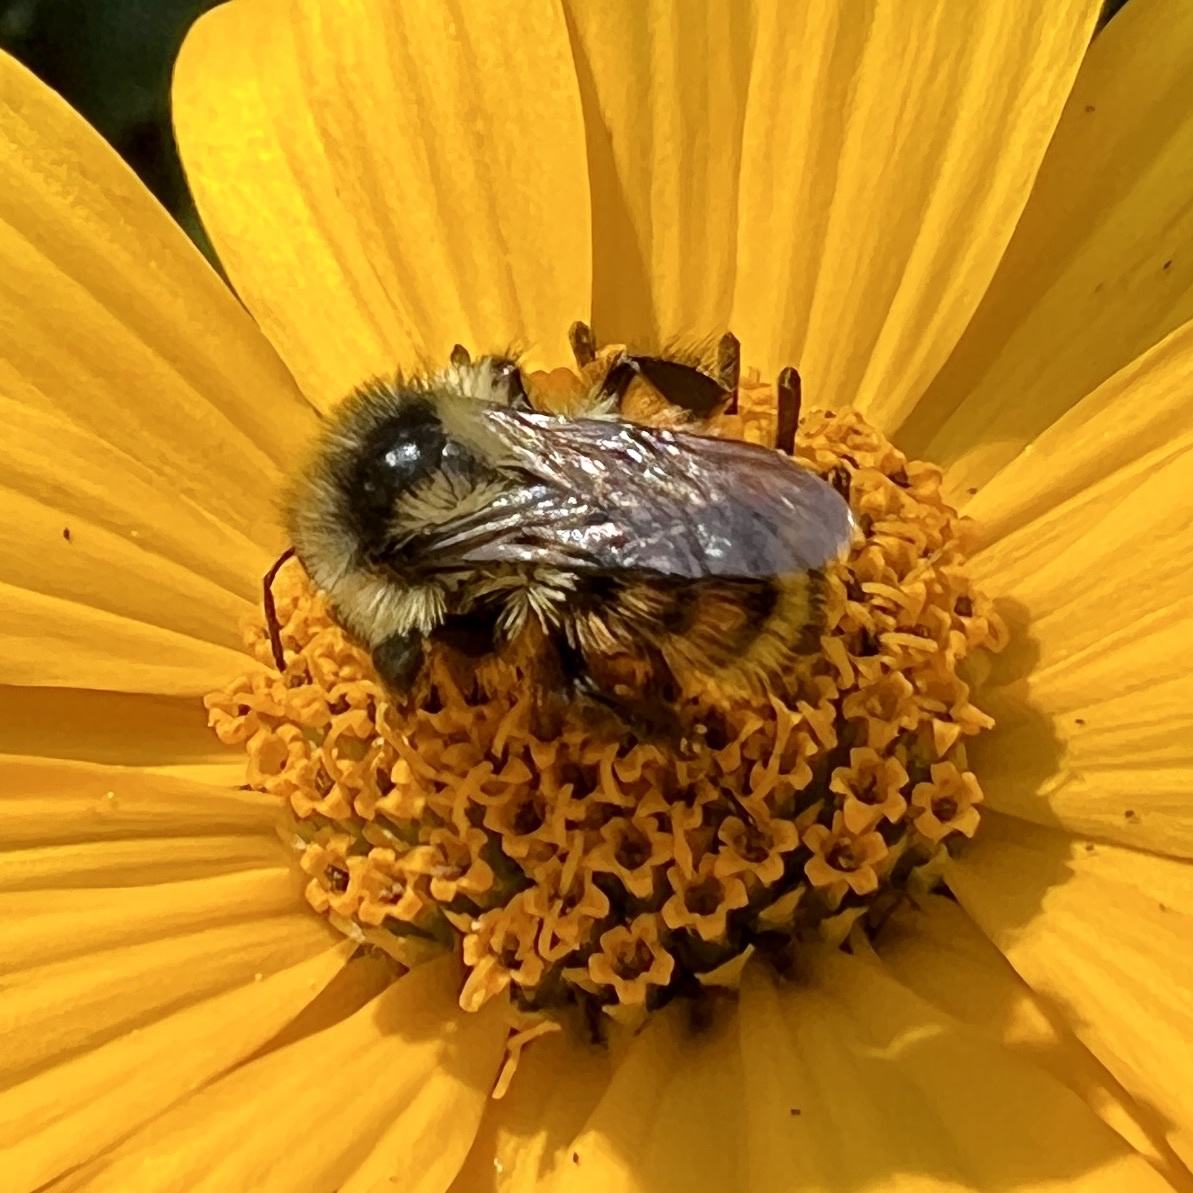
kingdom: Animalia
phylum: Arthropoda
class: Insecta
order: Hymenoptera
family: Apidae
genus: Bombus
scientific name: Bombus ternarius
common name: Tri-colored bumble bee
